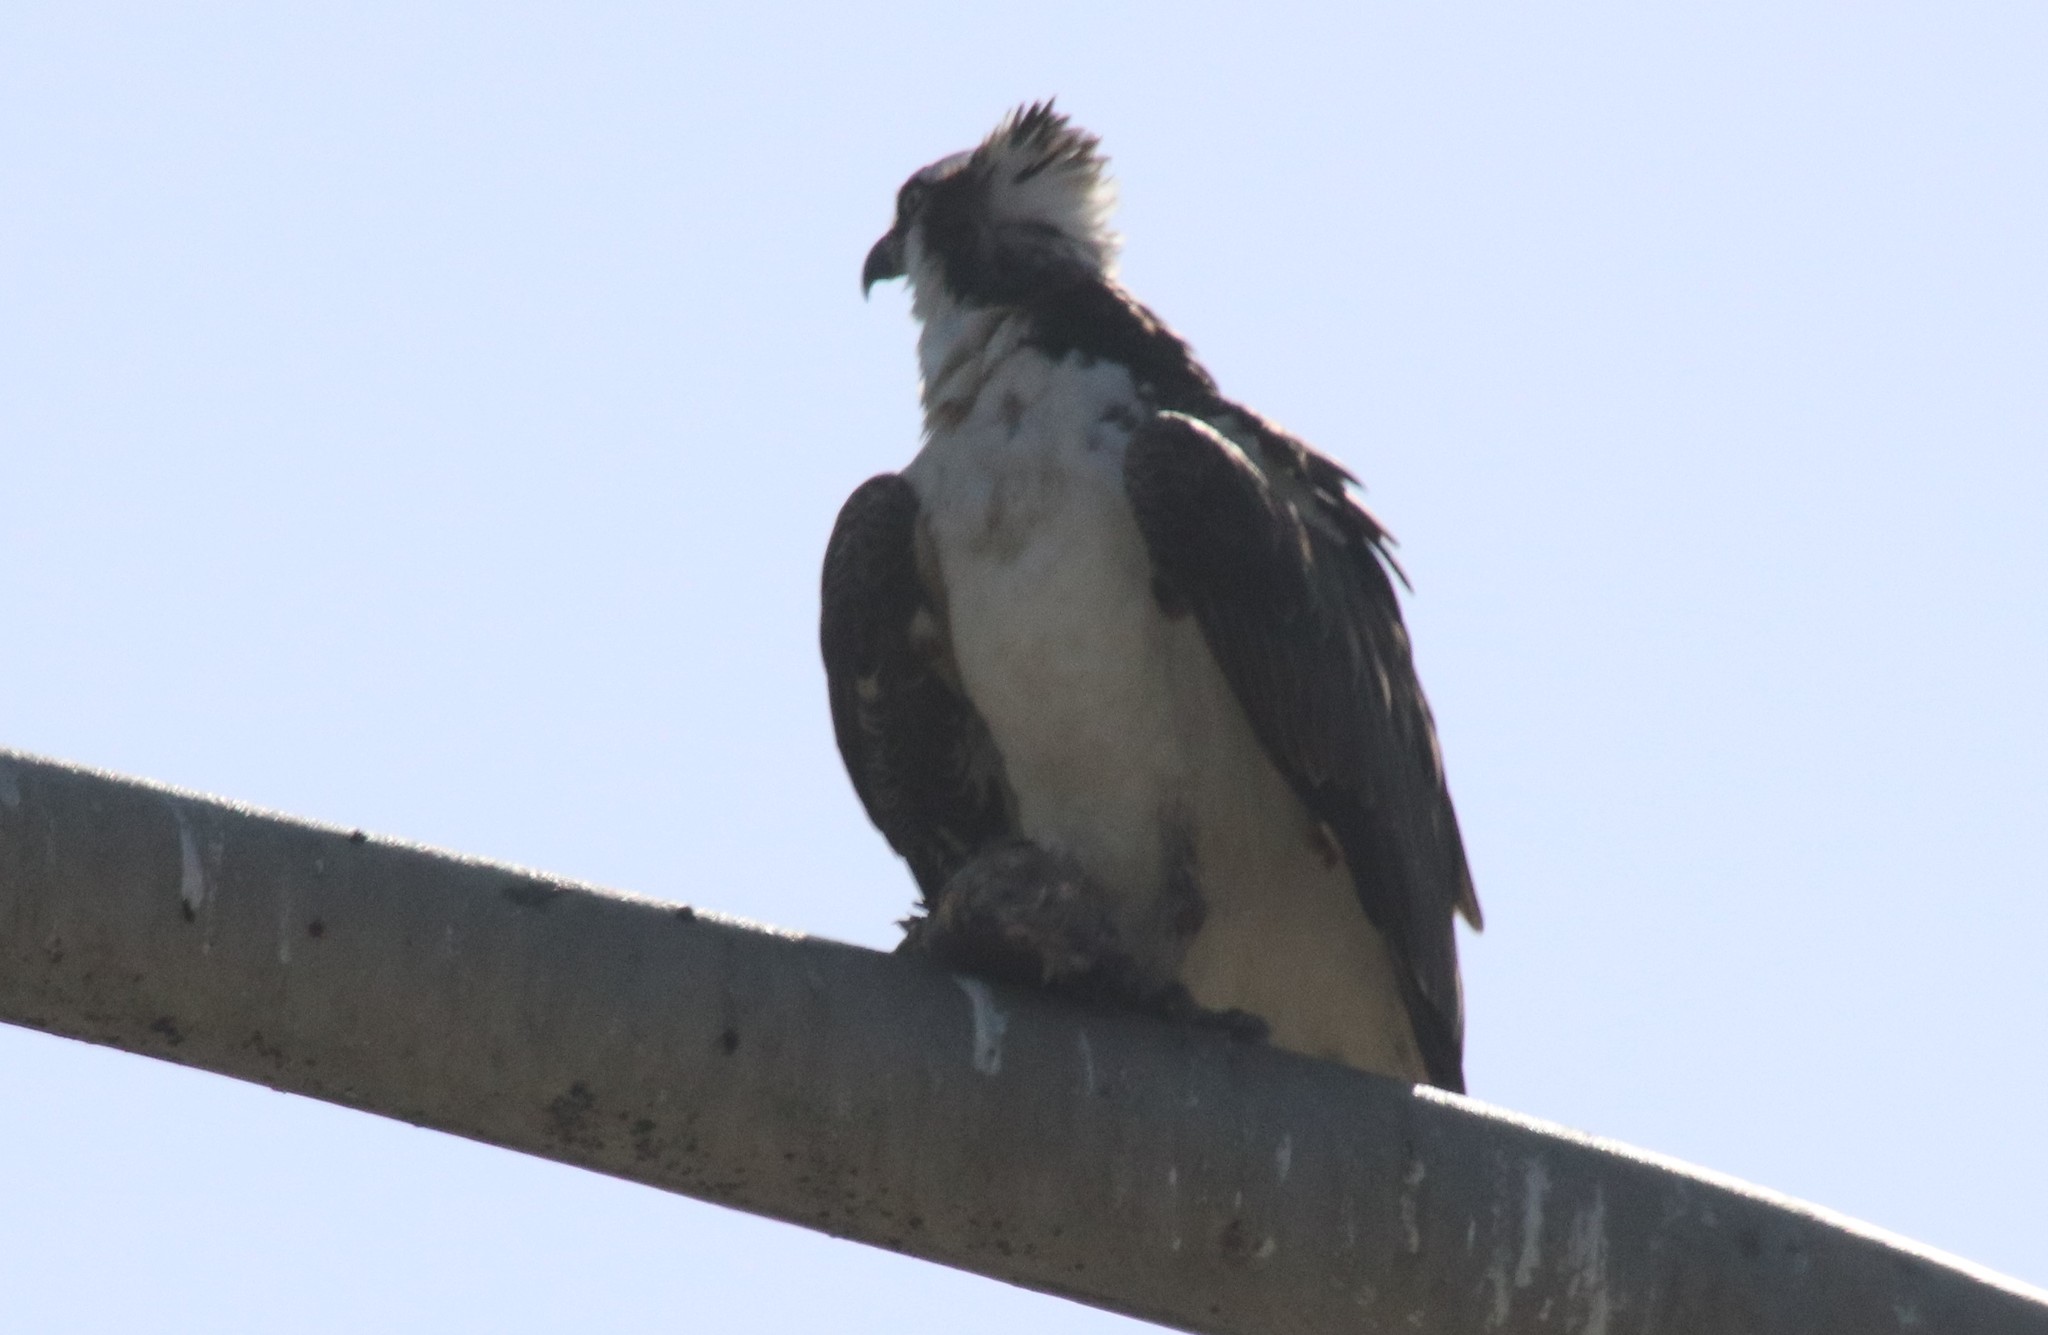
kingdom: Animalia
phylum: Chordata
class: Aves
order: Accipitriformes
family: Pandionidae
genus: Pandion
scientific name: Pandion haliaetus
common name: Osprey
